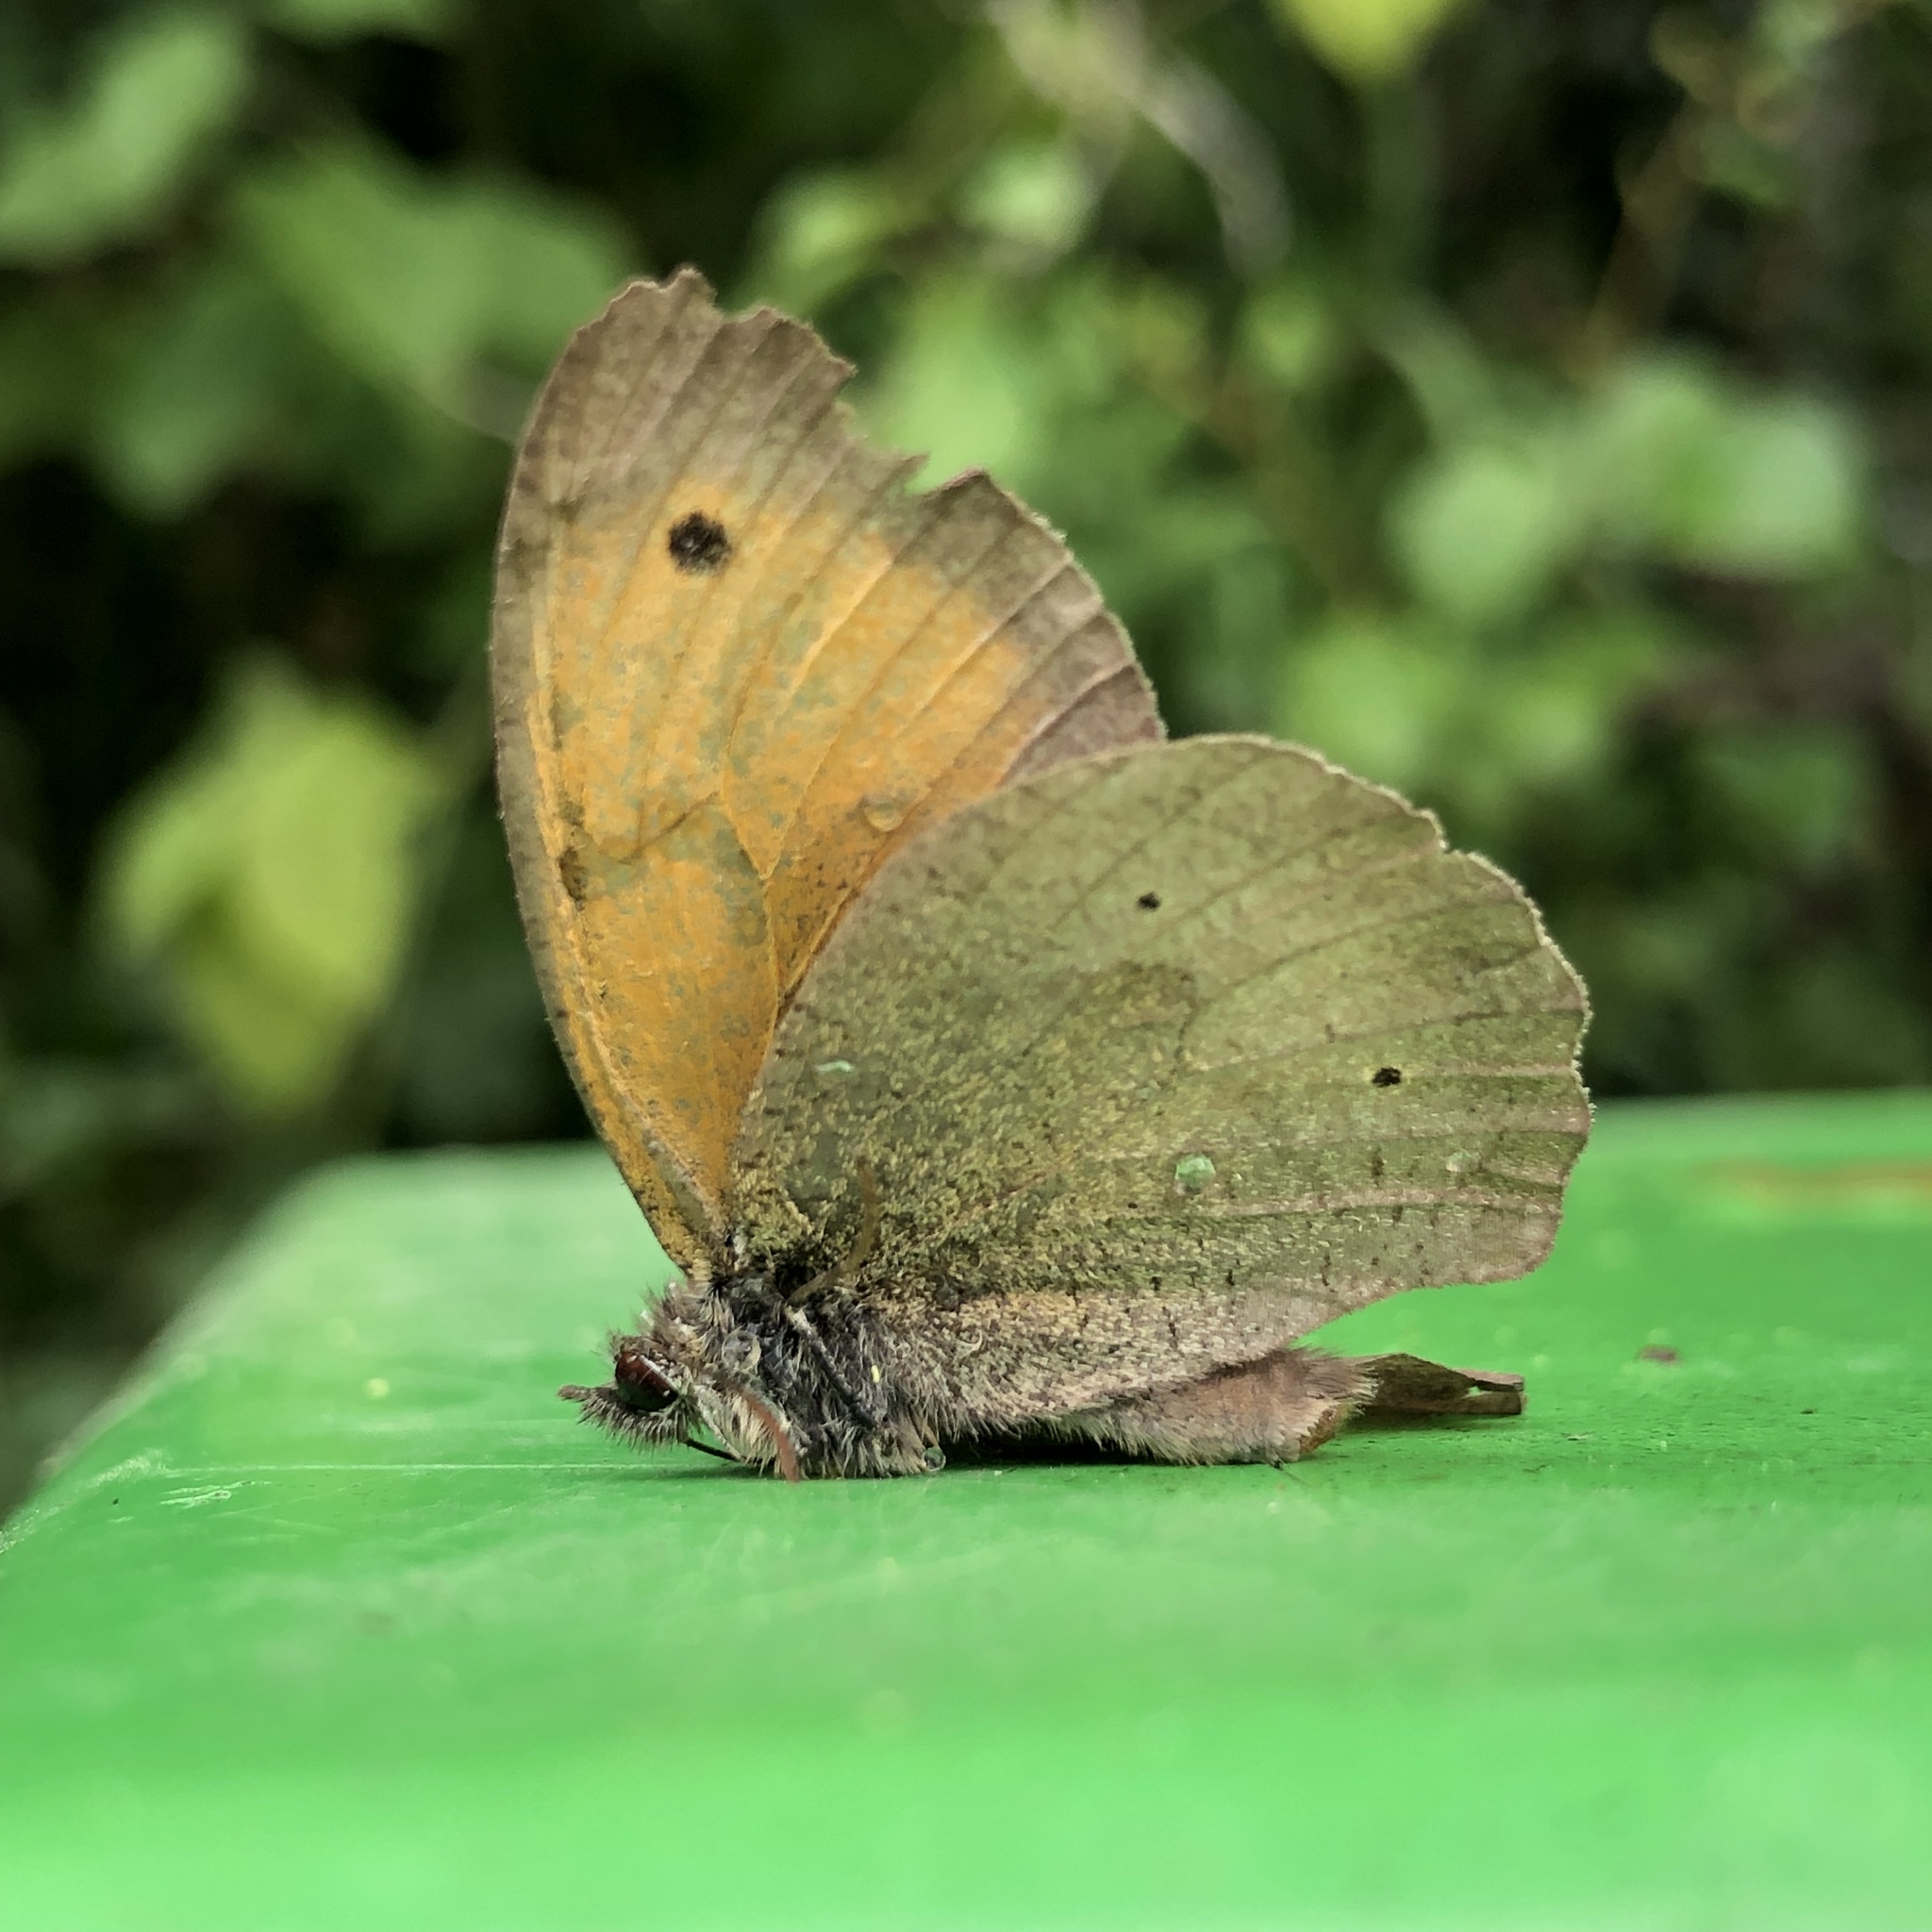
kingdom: Animalia
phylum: Arthropoda
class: Insecta
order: Lepidoptera
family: Nymphalidae
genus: Maniola
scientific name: Maniola jurtina
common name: Meadow brown
